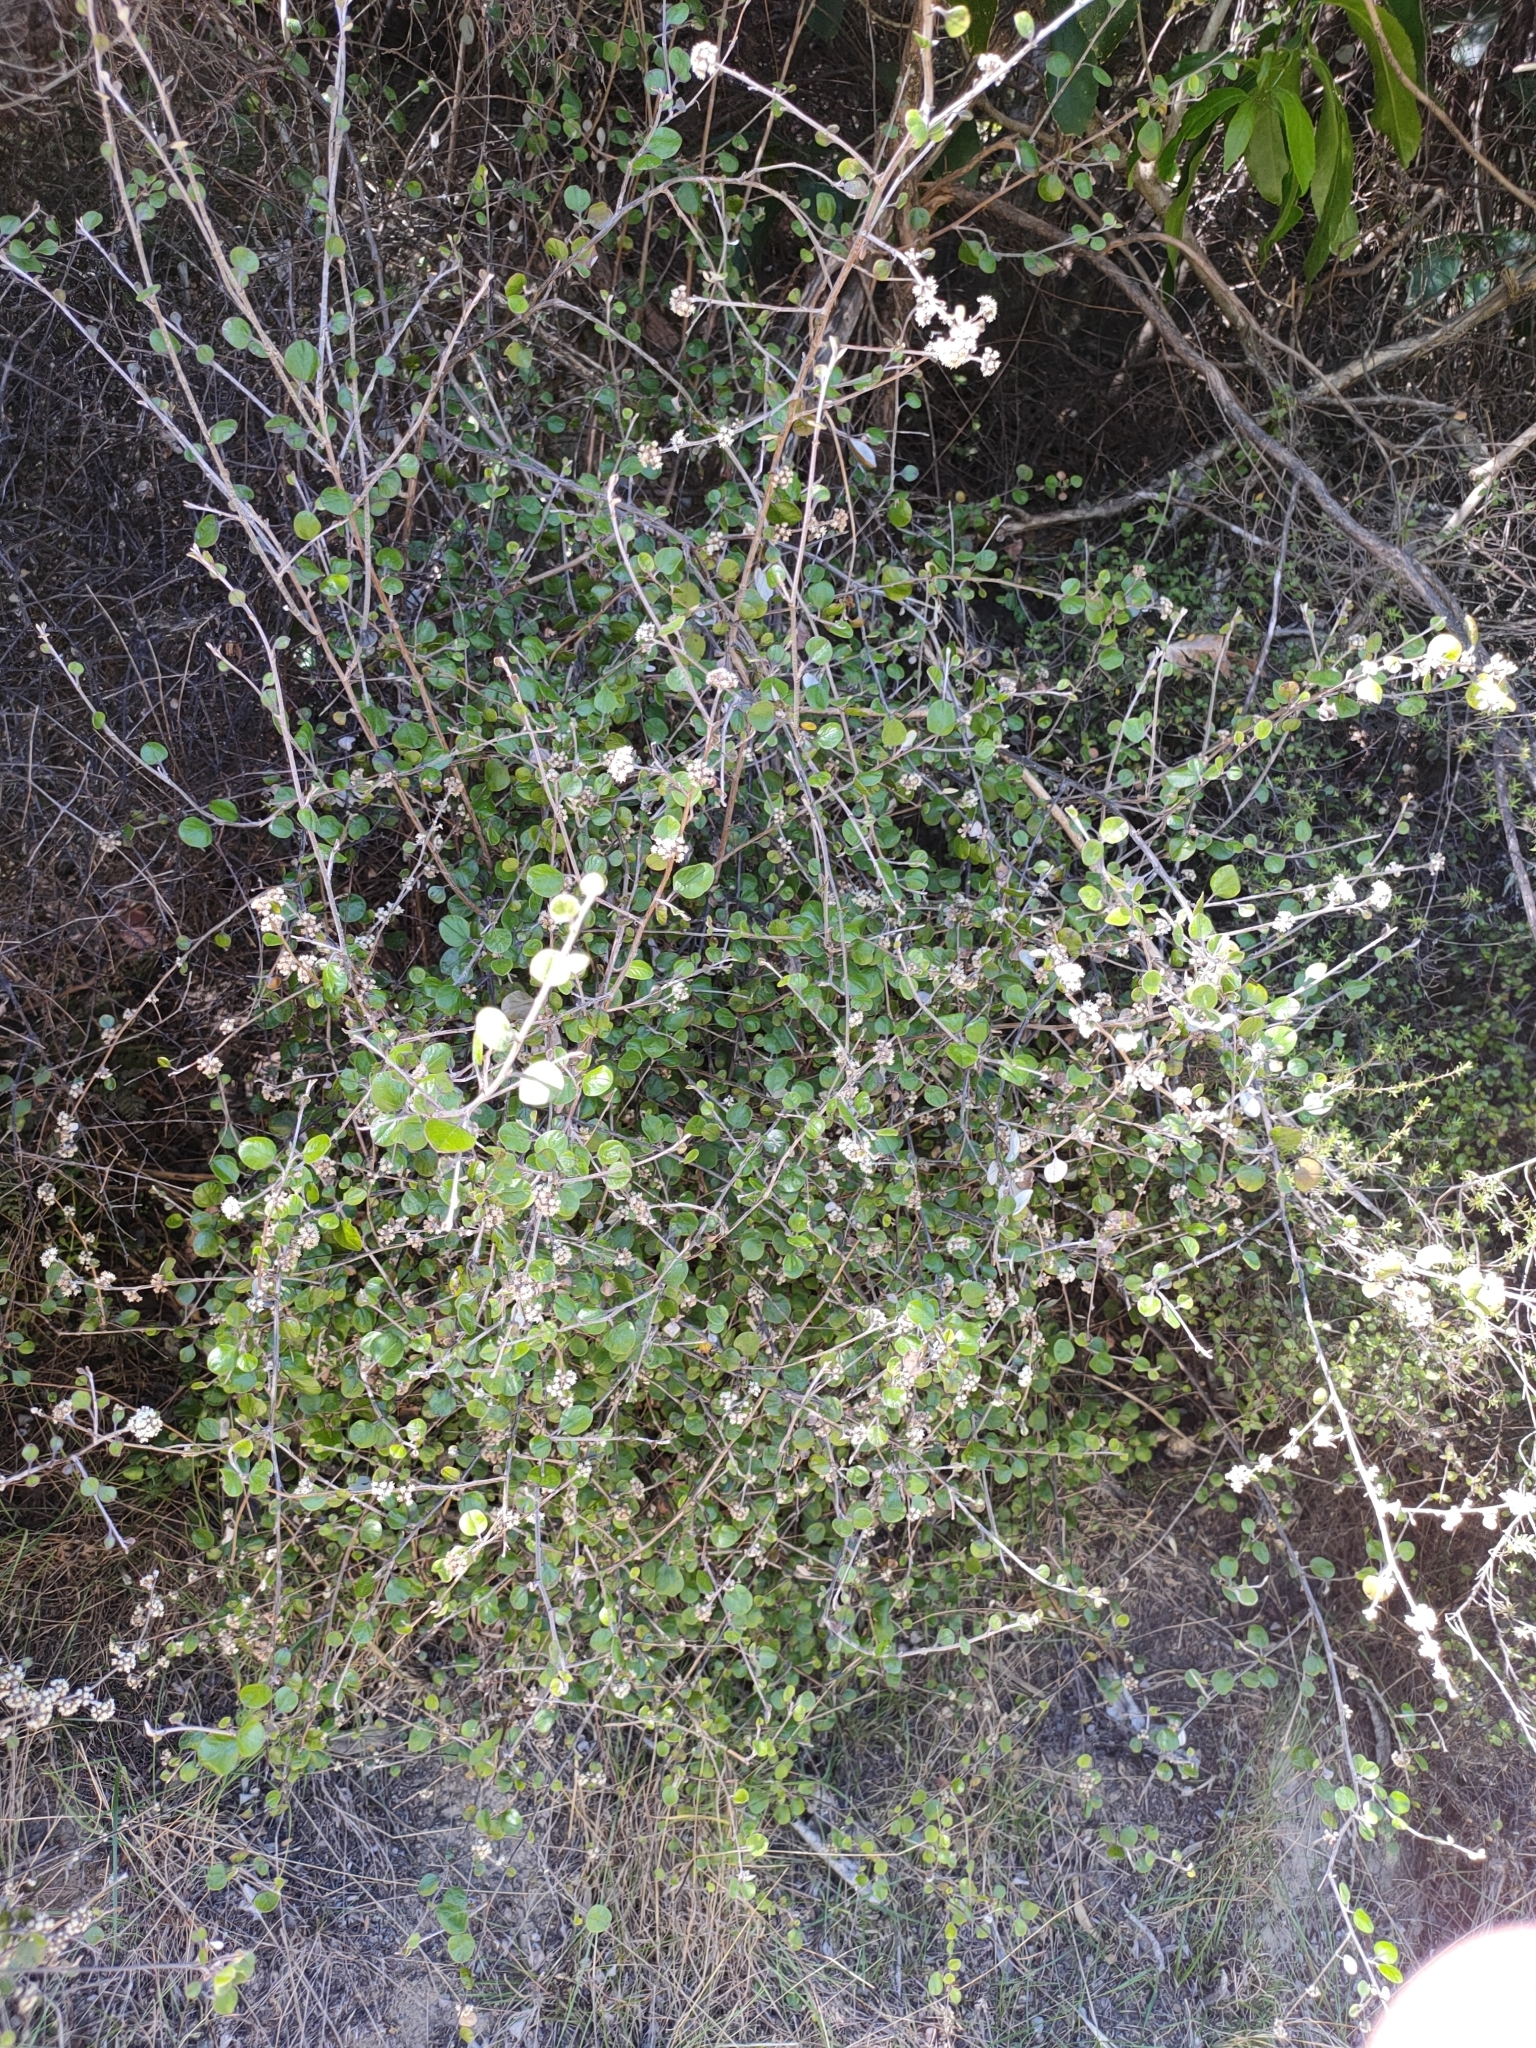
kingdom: Plantae
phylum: Tracheophyta
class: Magnoliopsida
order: Asterales
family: Asteraceae
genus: Ozothamnus
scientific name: Ozothamnus glomeratus
